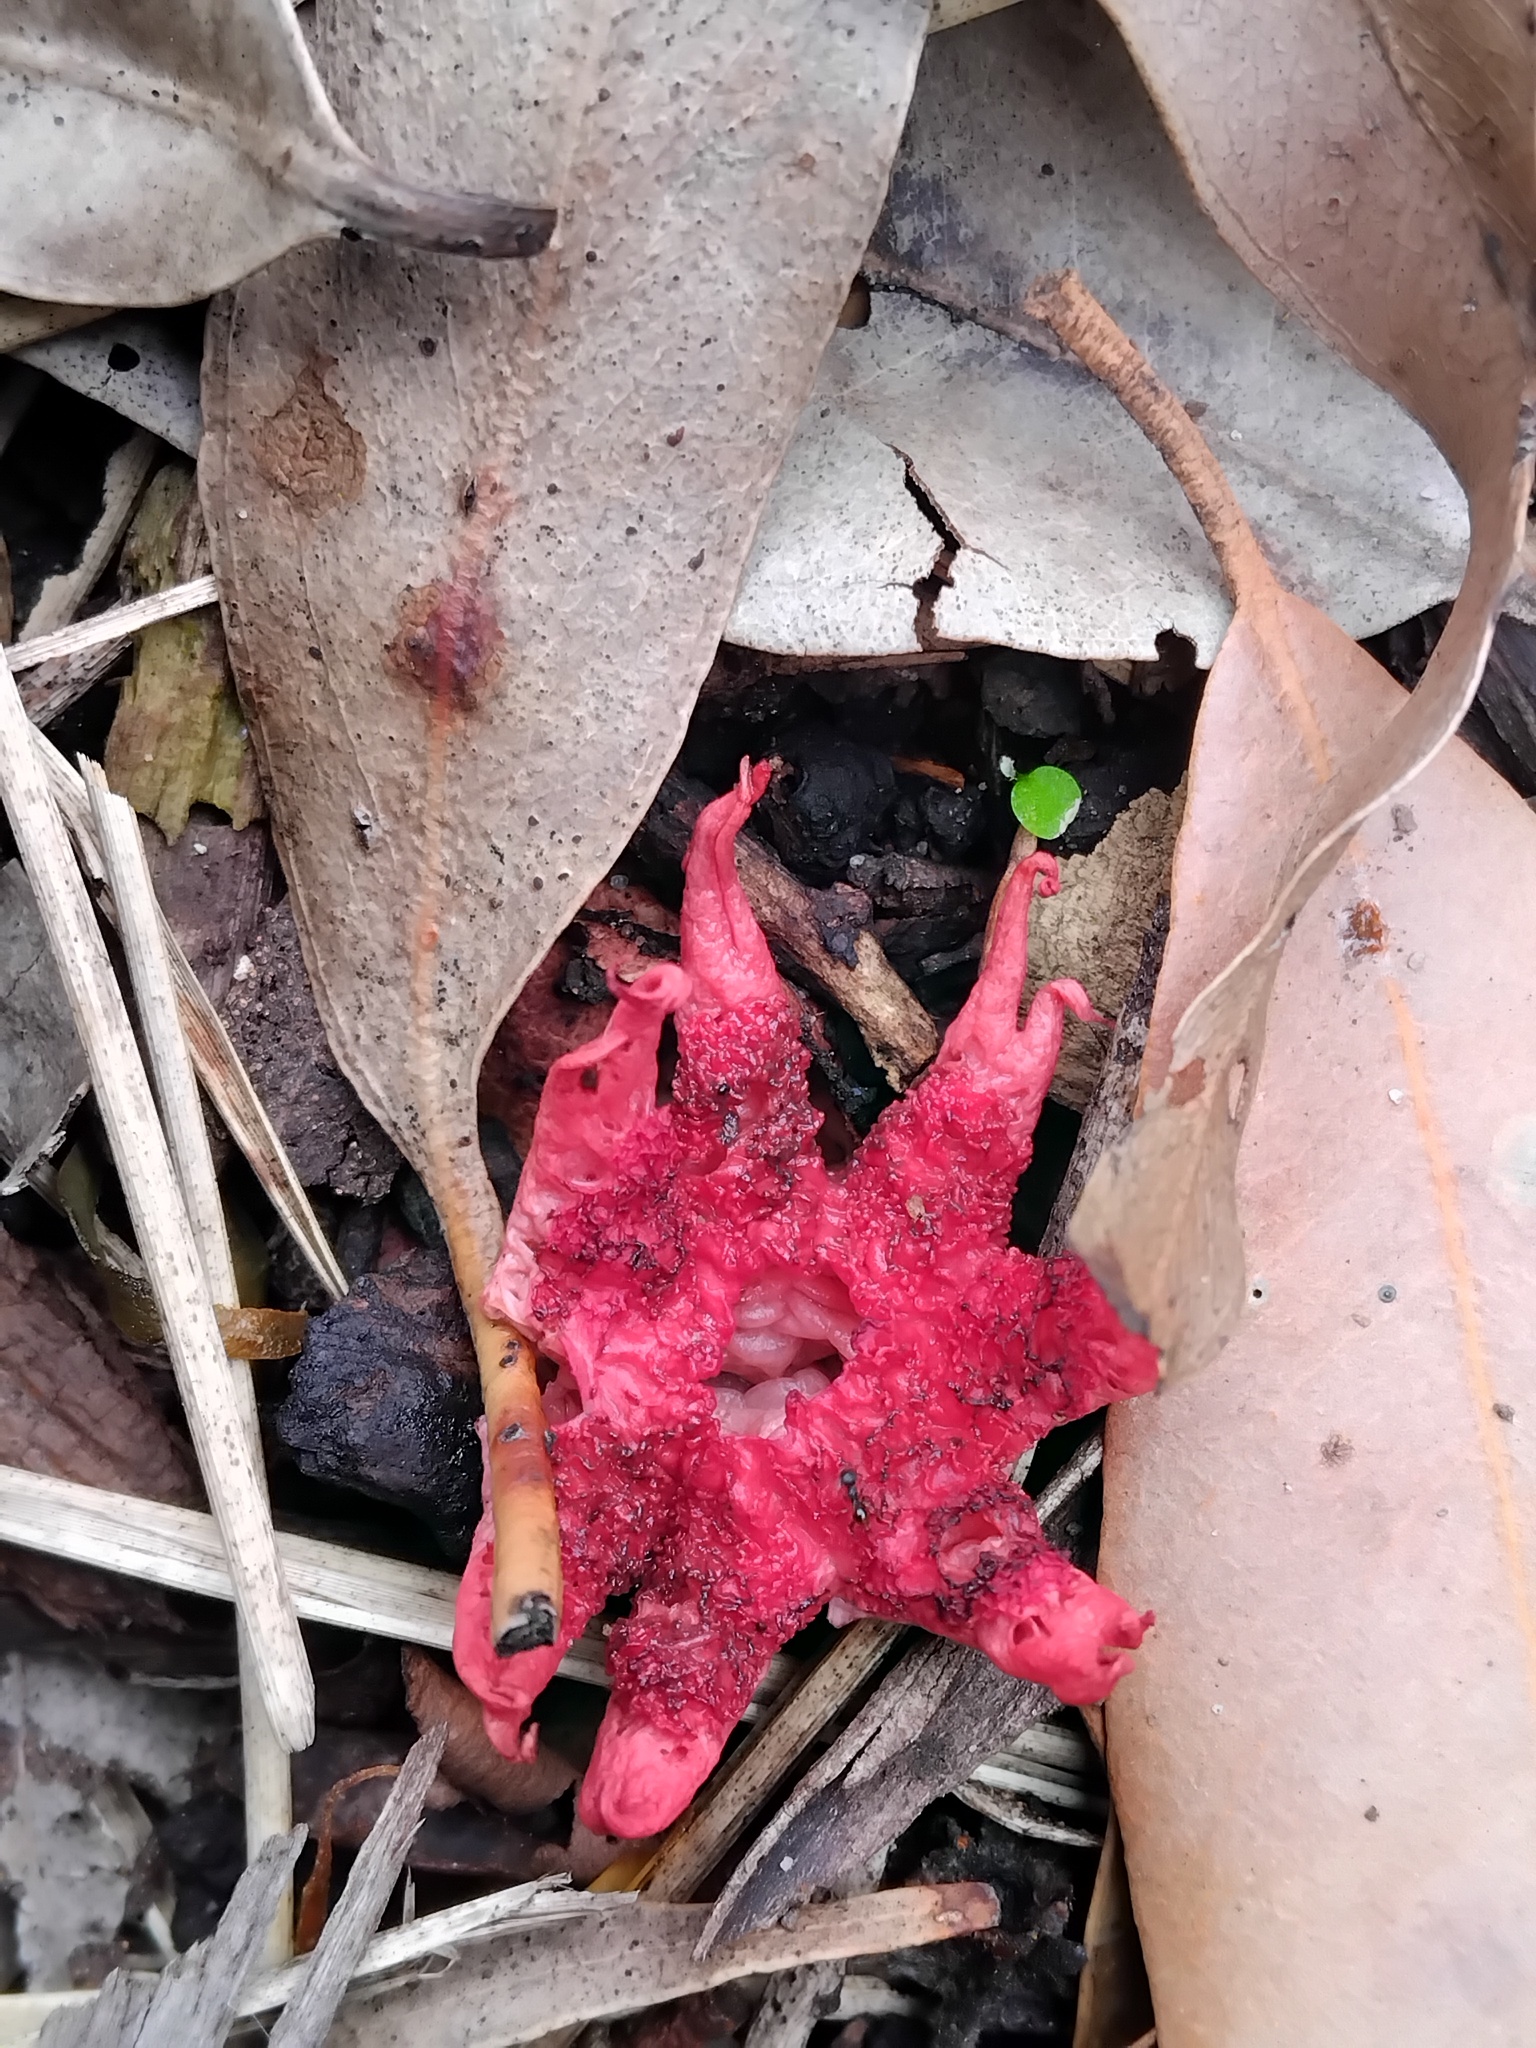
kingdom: Fungi
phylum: Basidiomycota
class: Agaricomycetes
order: Phallales
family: Phallaceae
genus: Aseroe
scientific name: Aseroe rubra
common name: Starfish fungus
